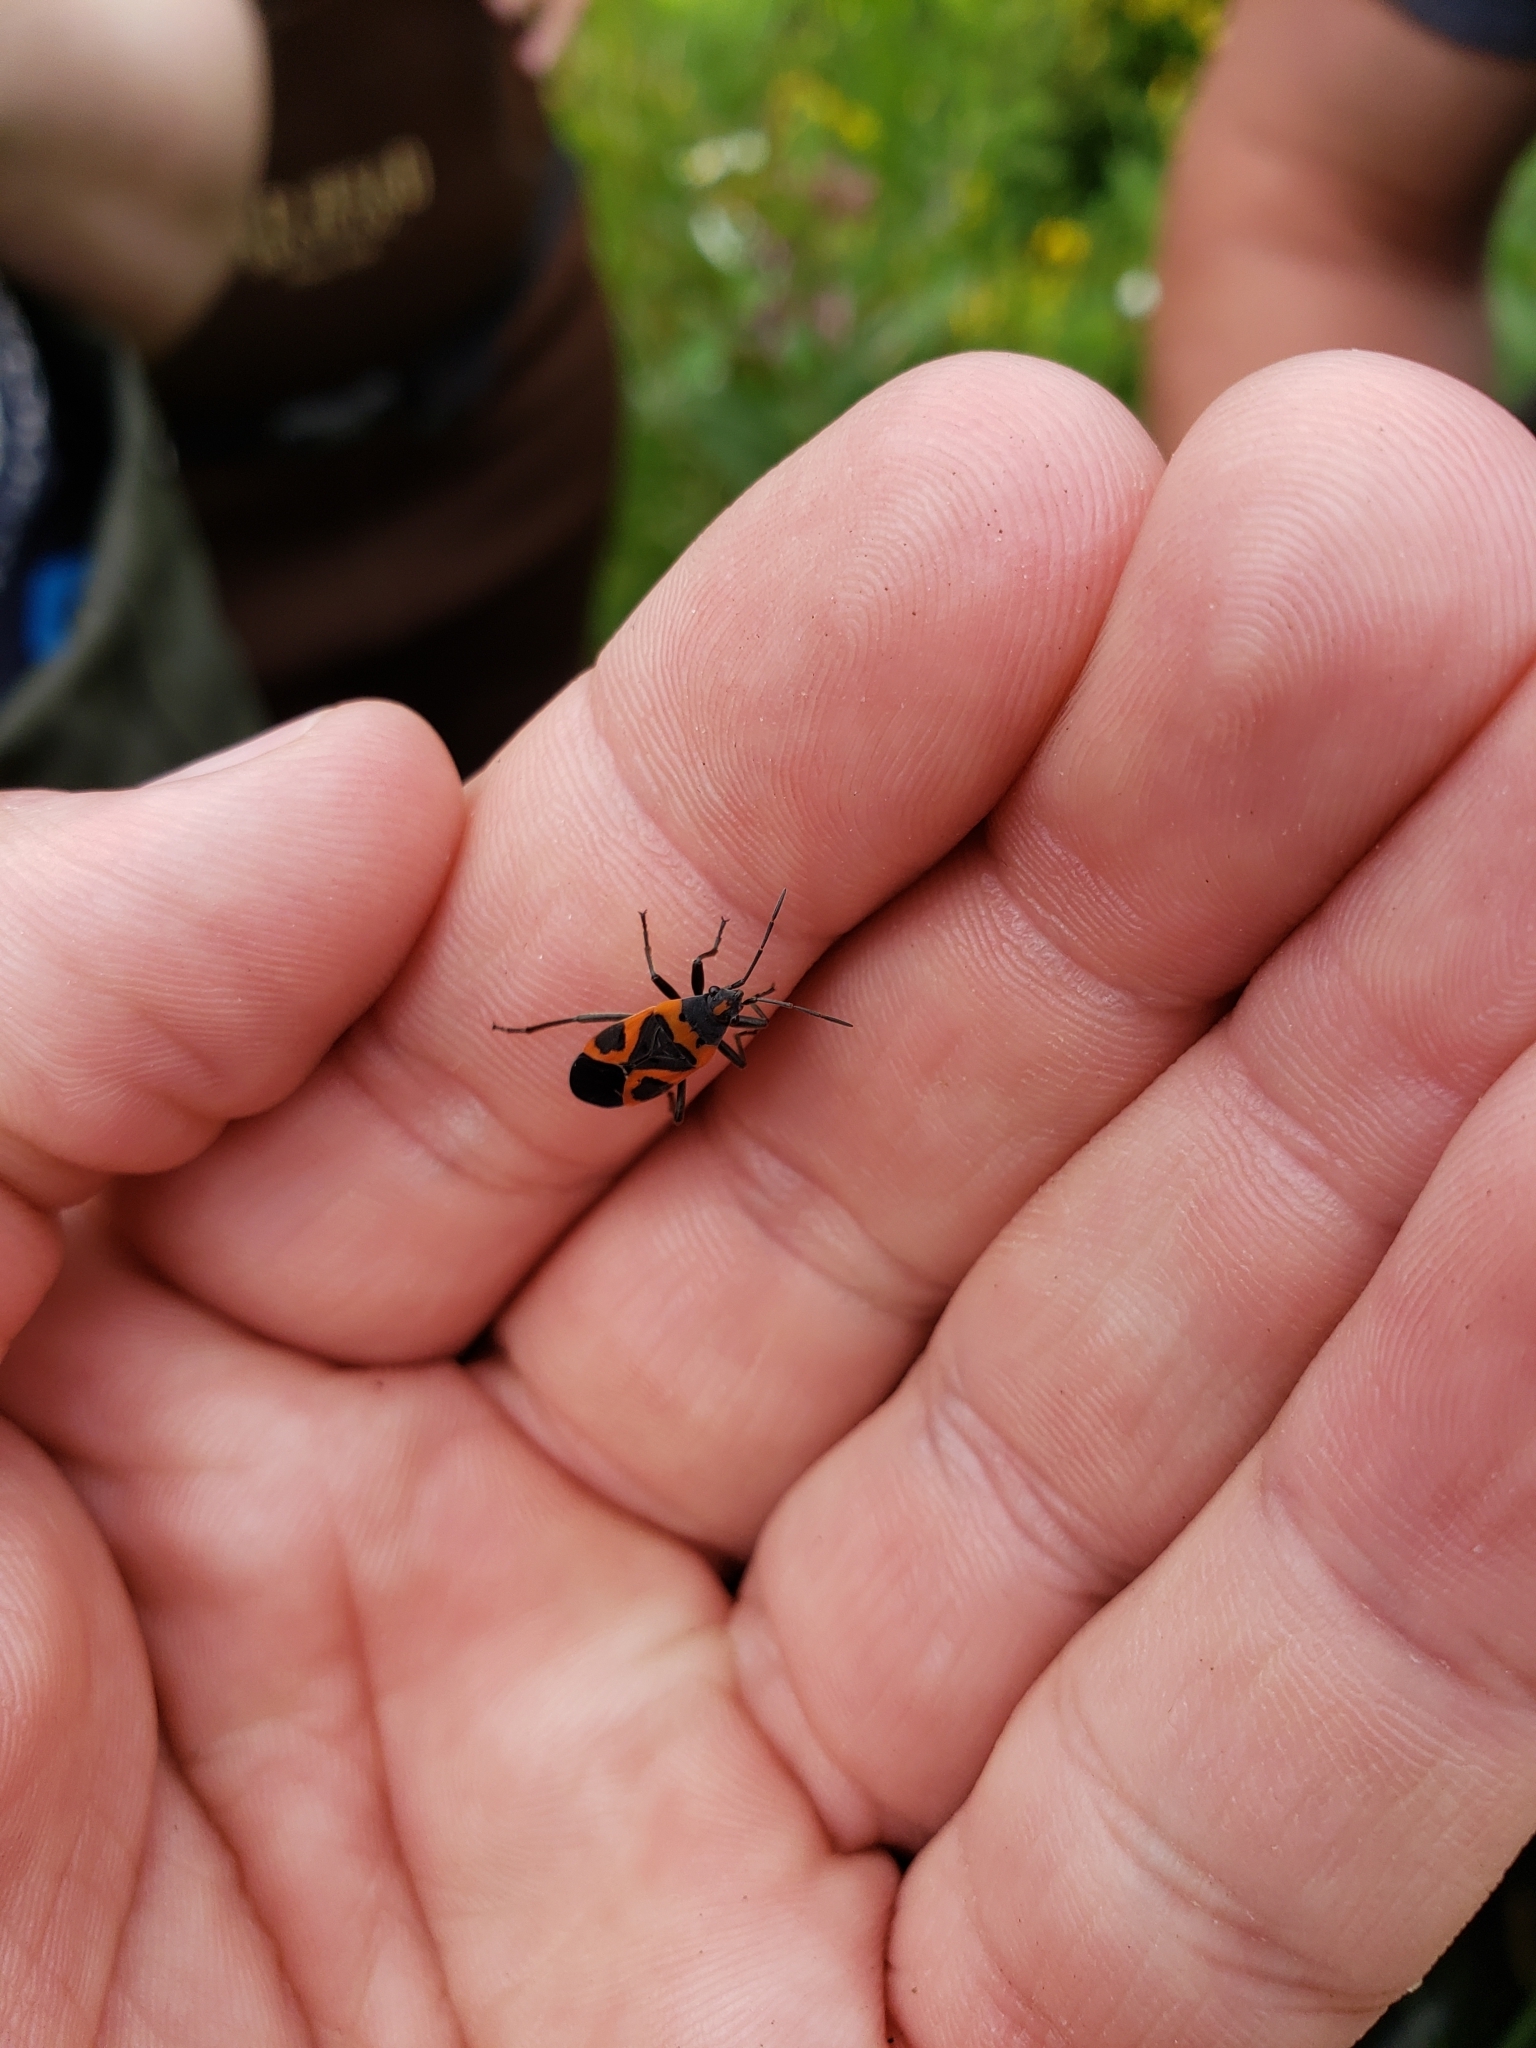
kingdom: Animalia
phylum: Arthropoda
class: Insecta
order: Hemiptera
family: Lygaeidae
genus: Lygaeus
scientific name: Lygaeus kalmii
